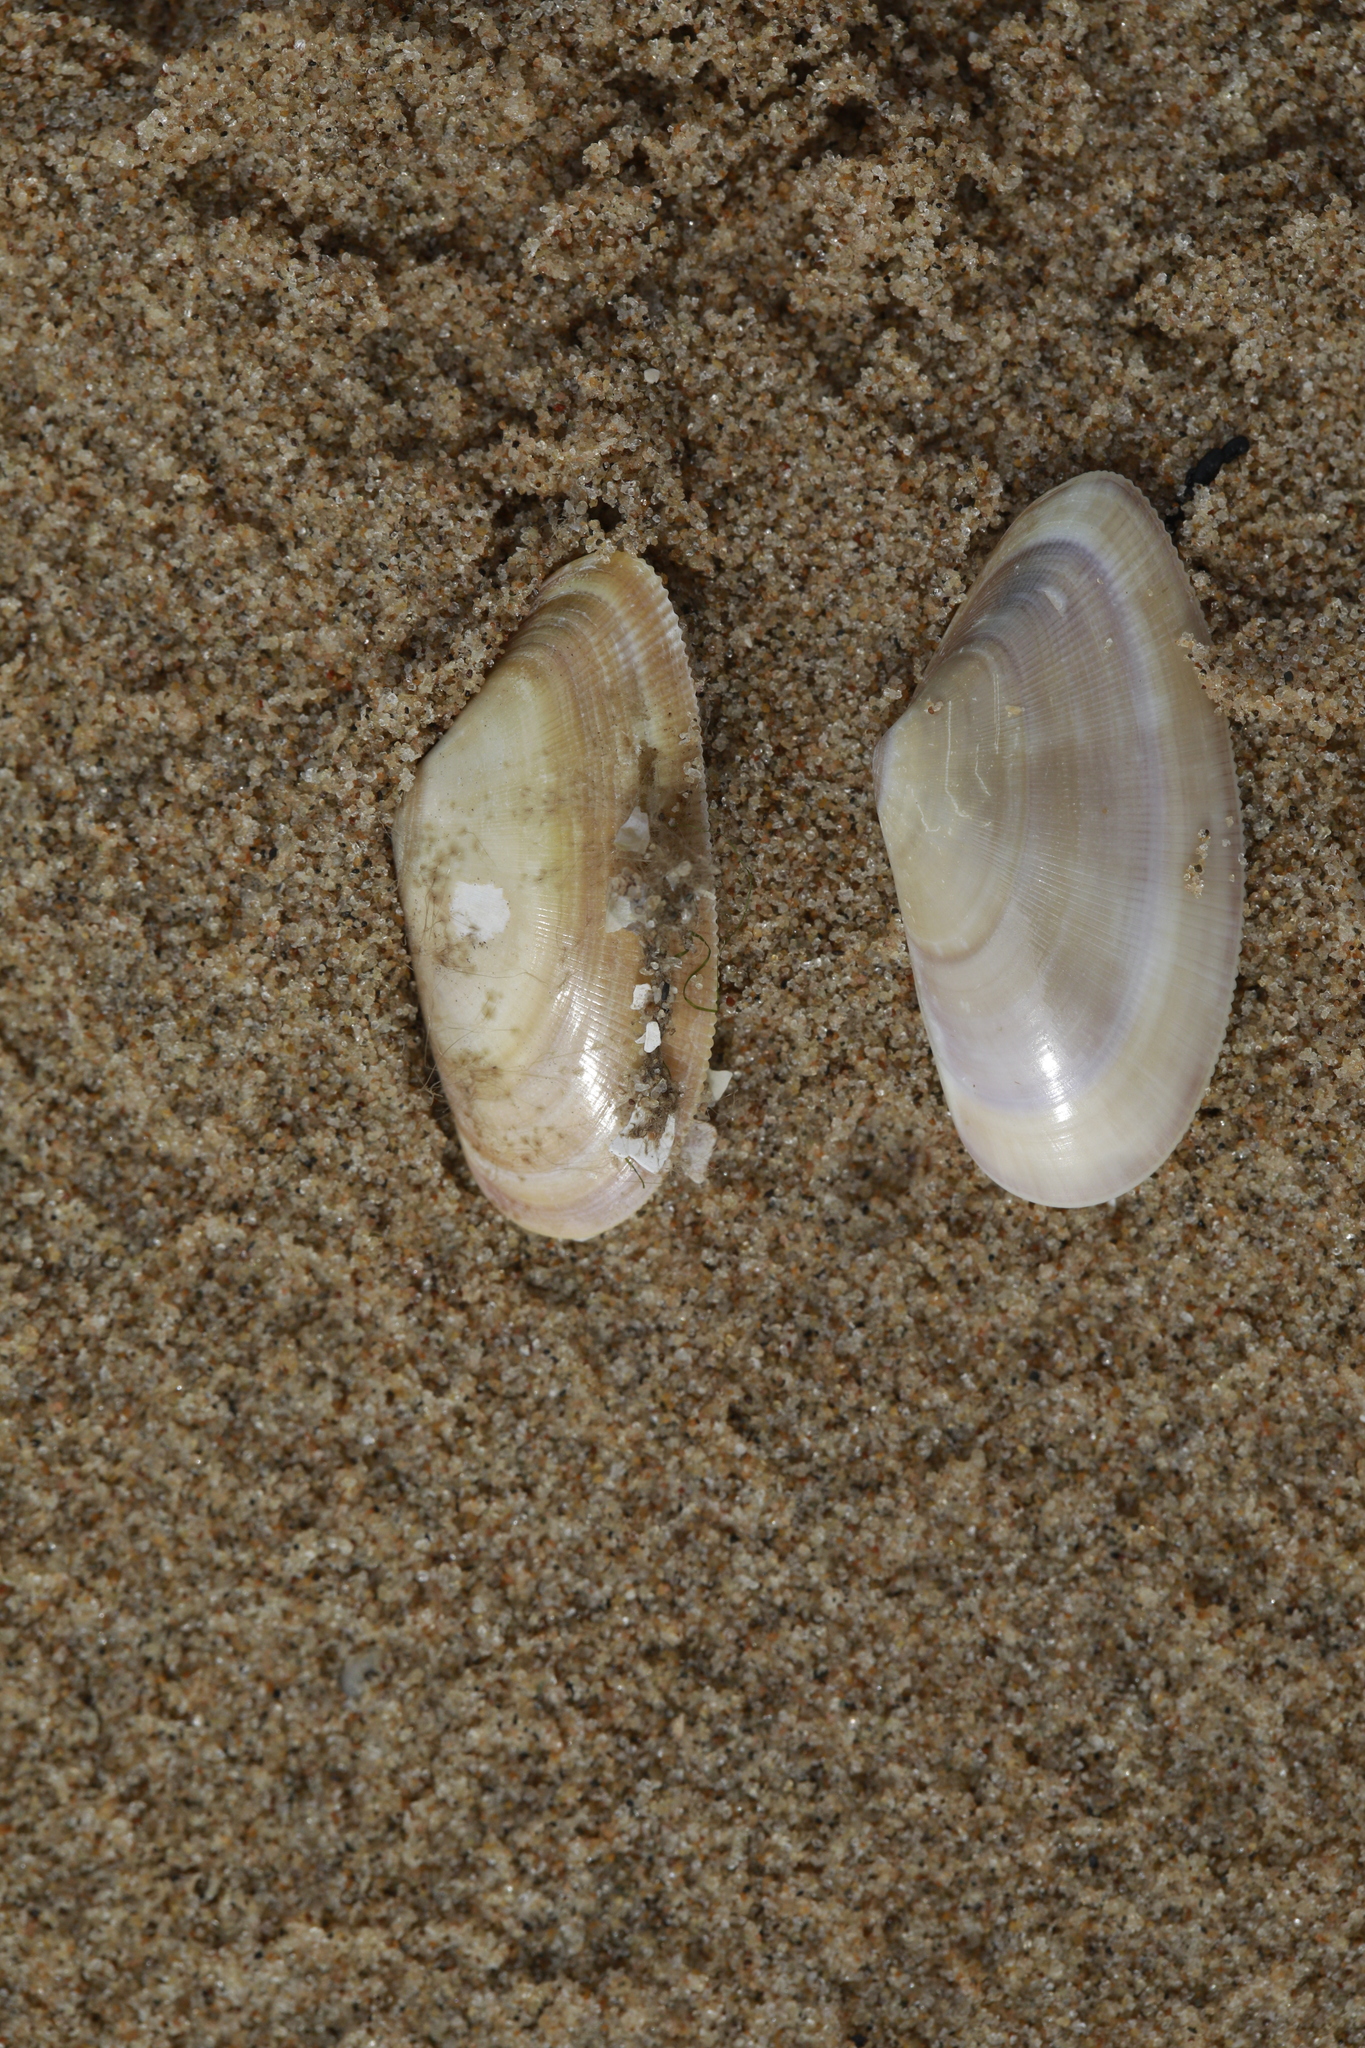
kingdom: Animalia
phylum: Mollusca
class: Bivalvia
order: Cardiida
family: Donacidae
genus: Donax
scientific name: Donax vittatus
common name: Banded wedge-shell
